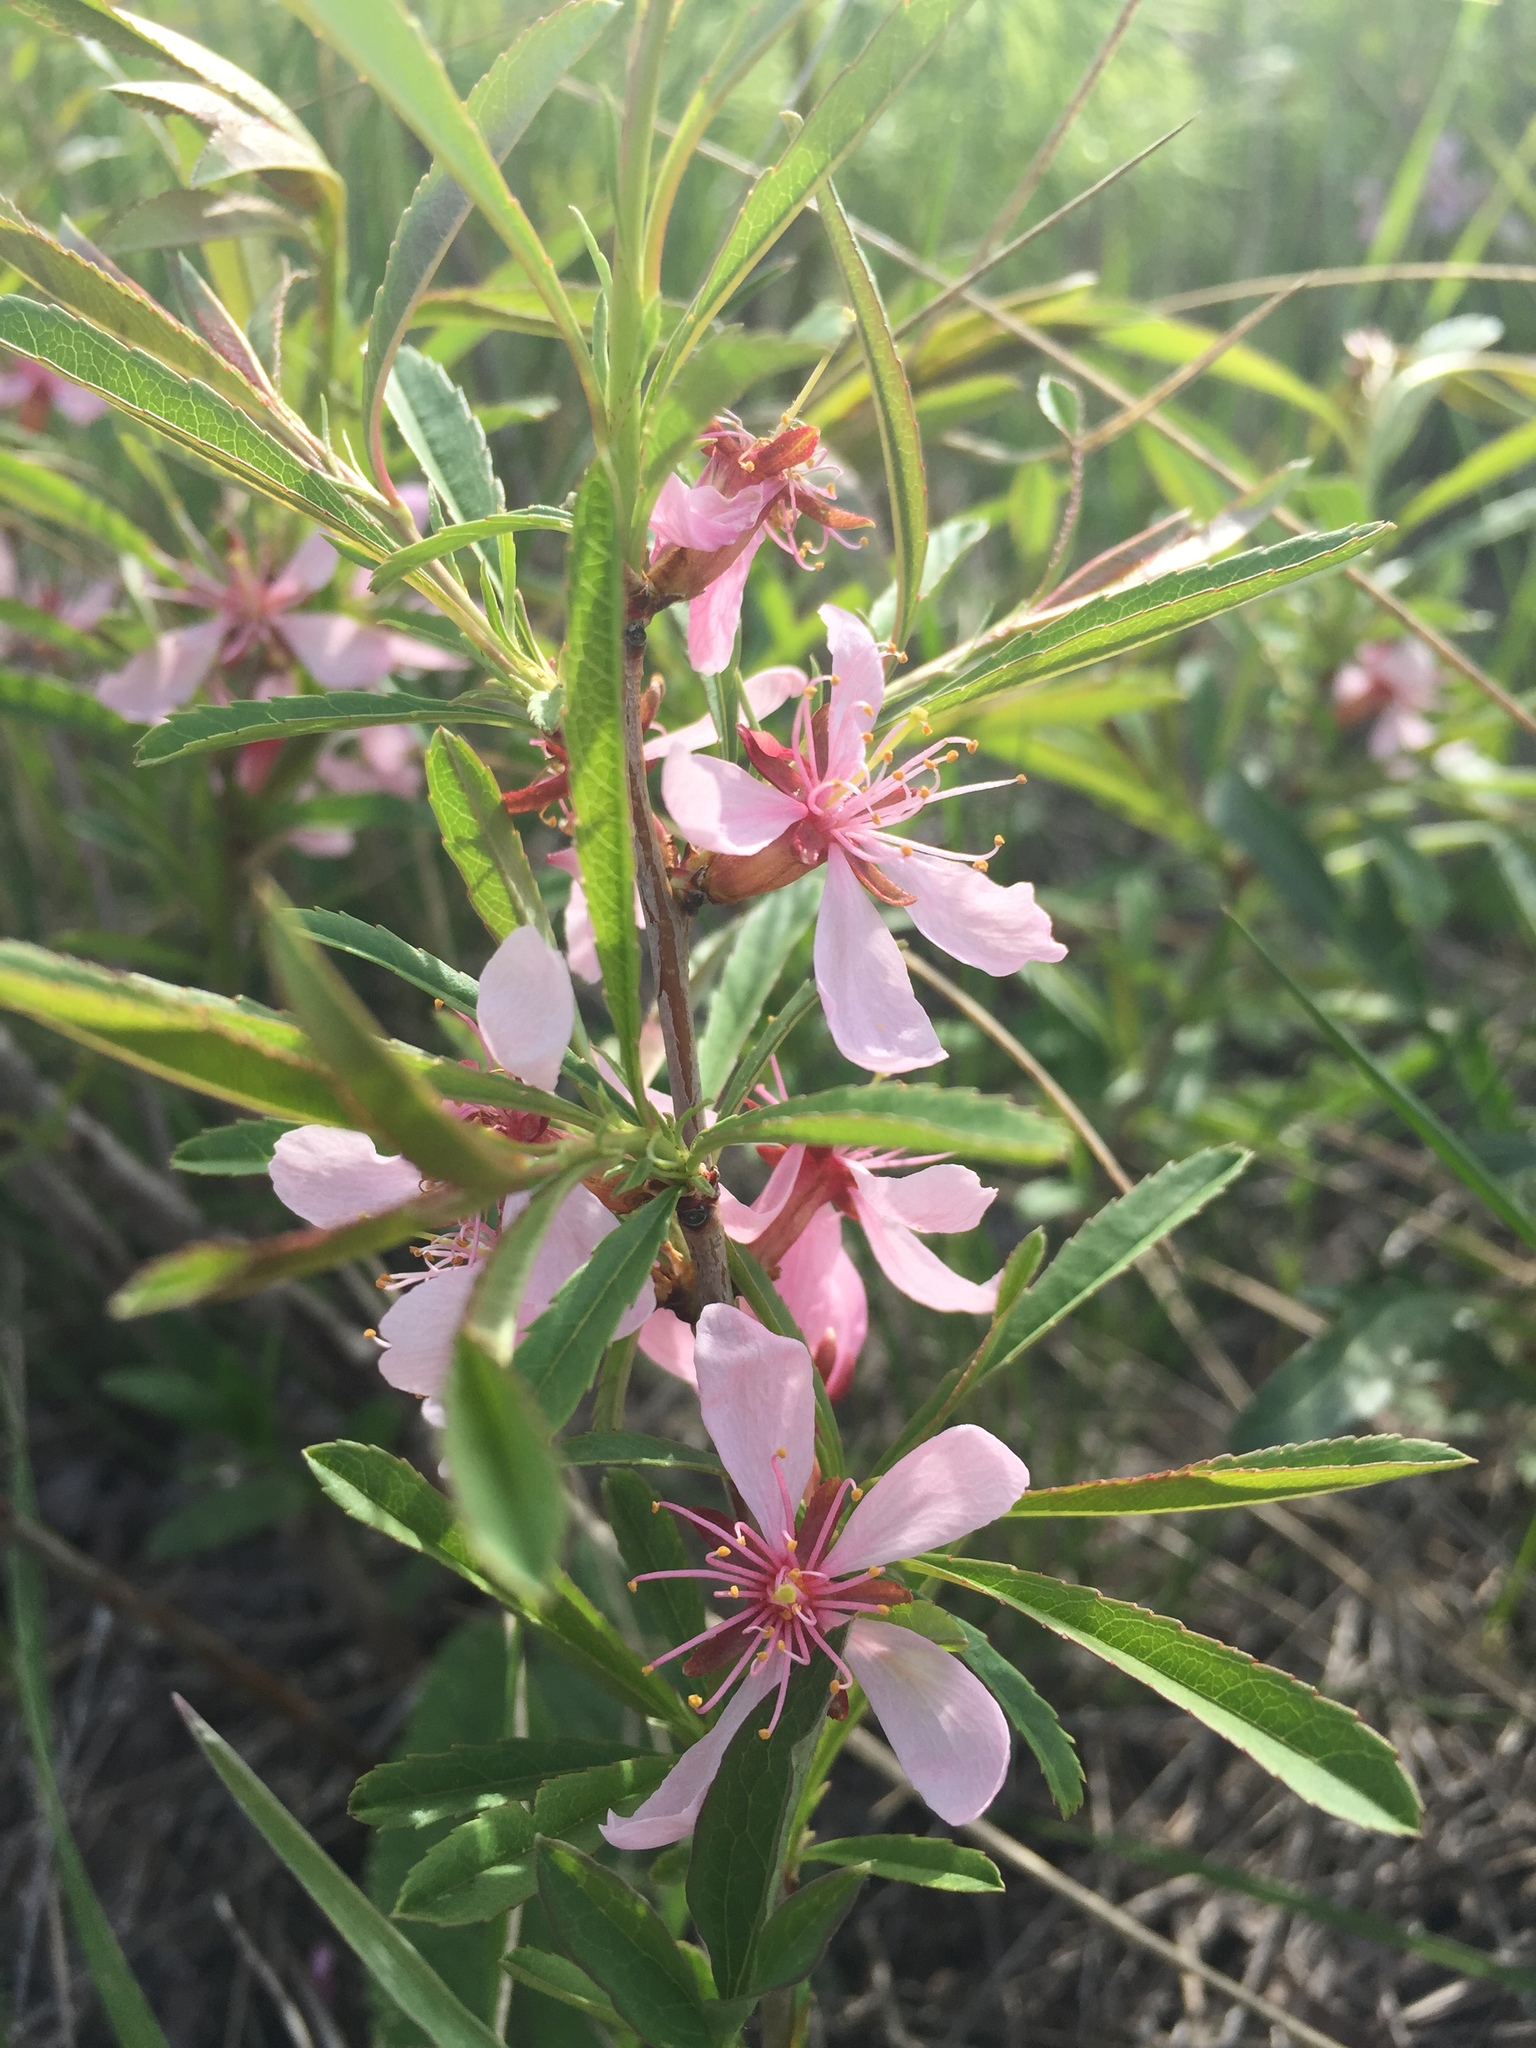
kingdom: Plantae
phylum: Tracheophyta
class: Magnoliopsida
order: Rosales
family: Rosaceae
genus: Prunus
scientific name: Prunus tenella
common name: Dwarf russian almond
